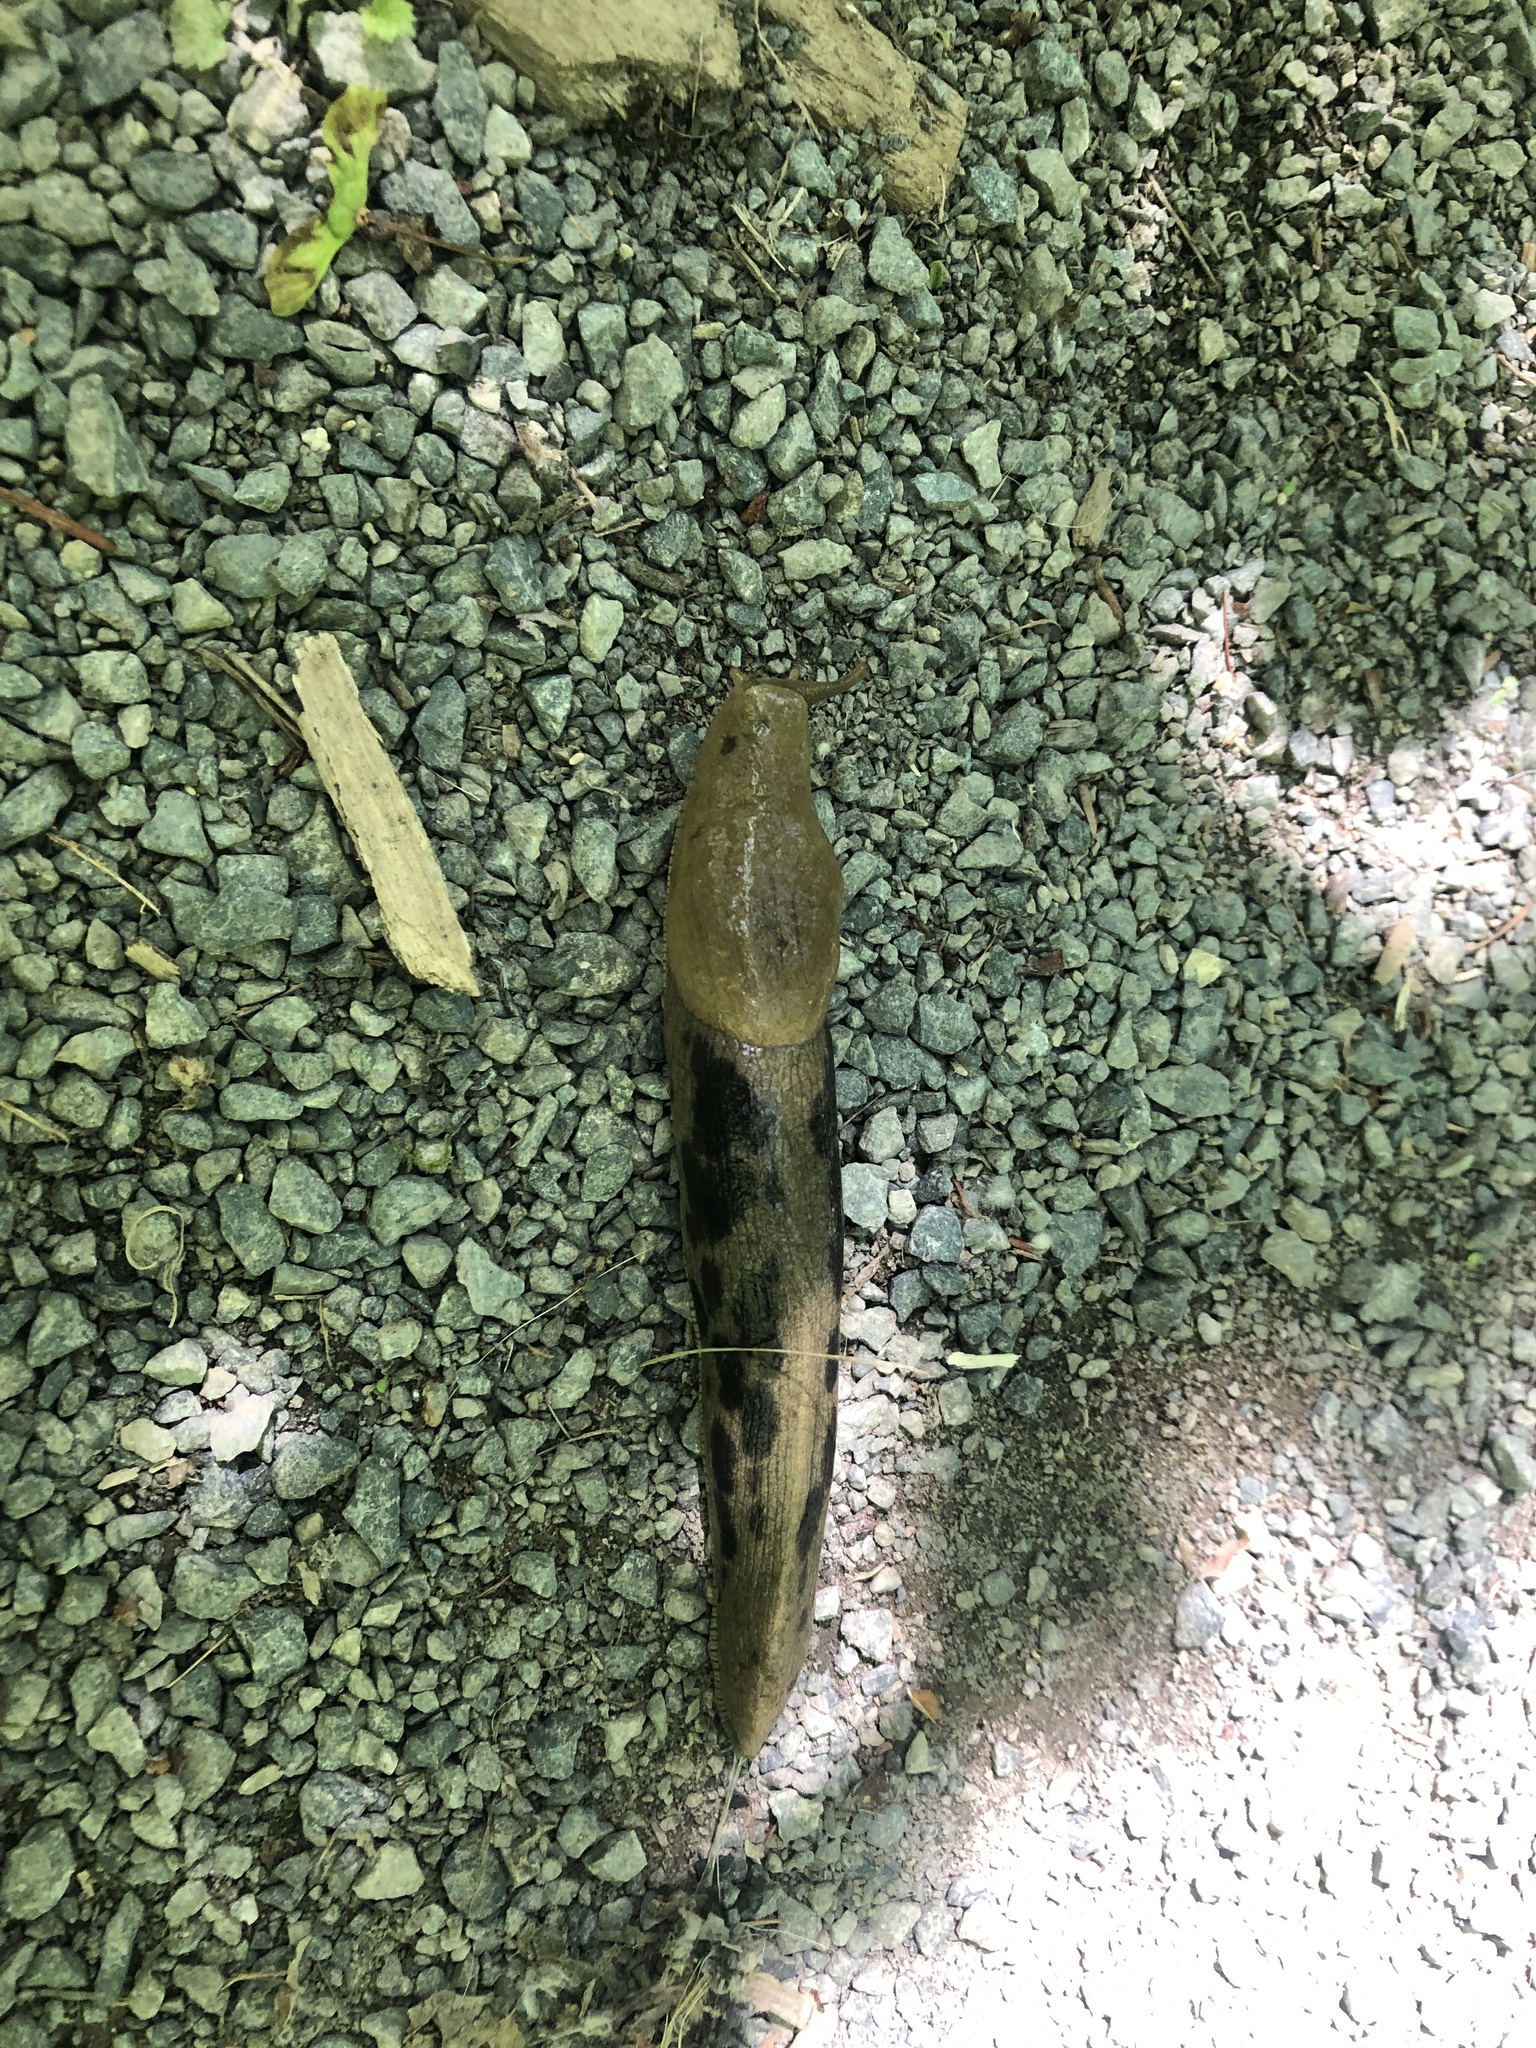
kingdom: Animalia
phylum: Mollusca
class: Gastropoda
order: Stylommatophora
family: Ariolimacidae
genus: Ariolimax
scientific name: Ariolimax columbianus
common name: Pacific banana slug
